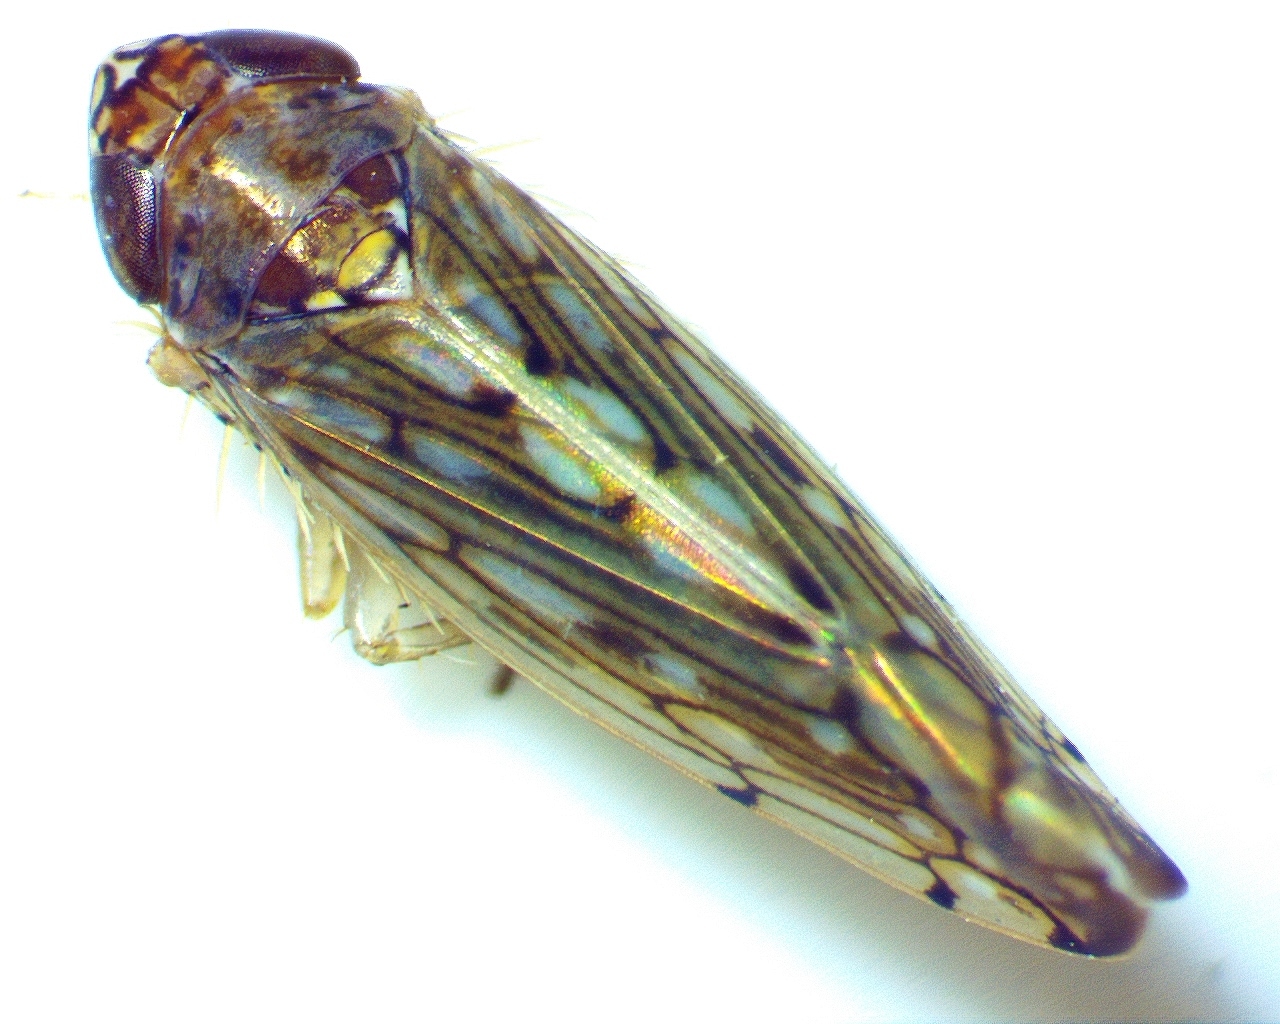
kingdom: Animalia
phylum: Arthropoda
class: Insecta
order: Hemiptera
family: Cicadellidae
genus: Osbornellus
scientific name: Osbornellus clarus
